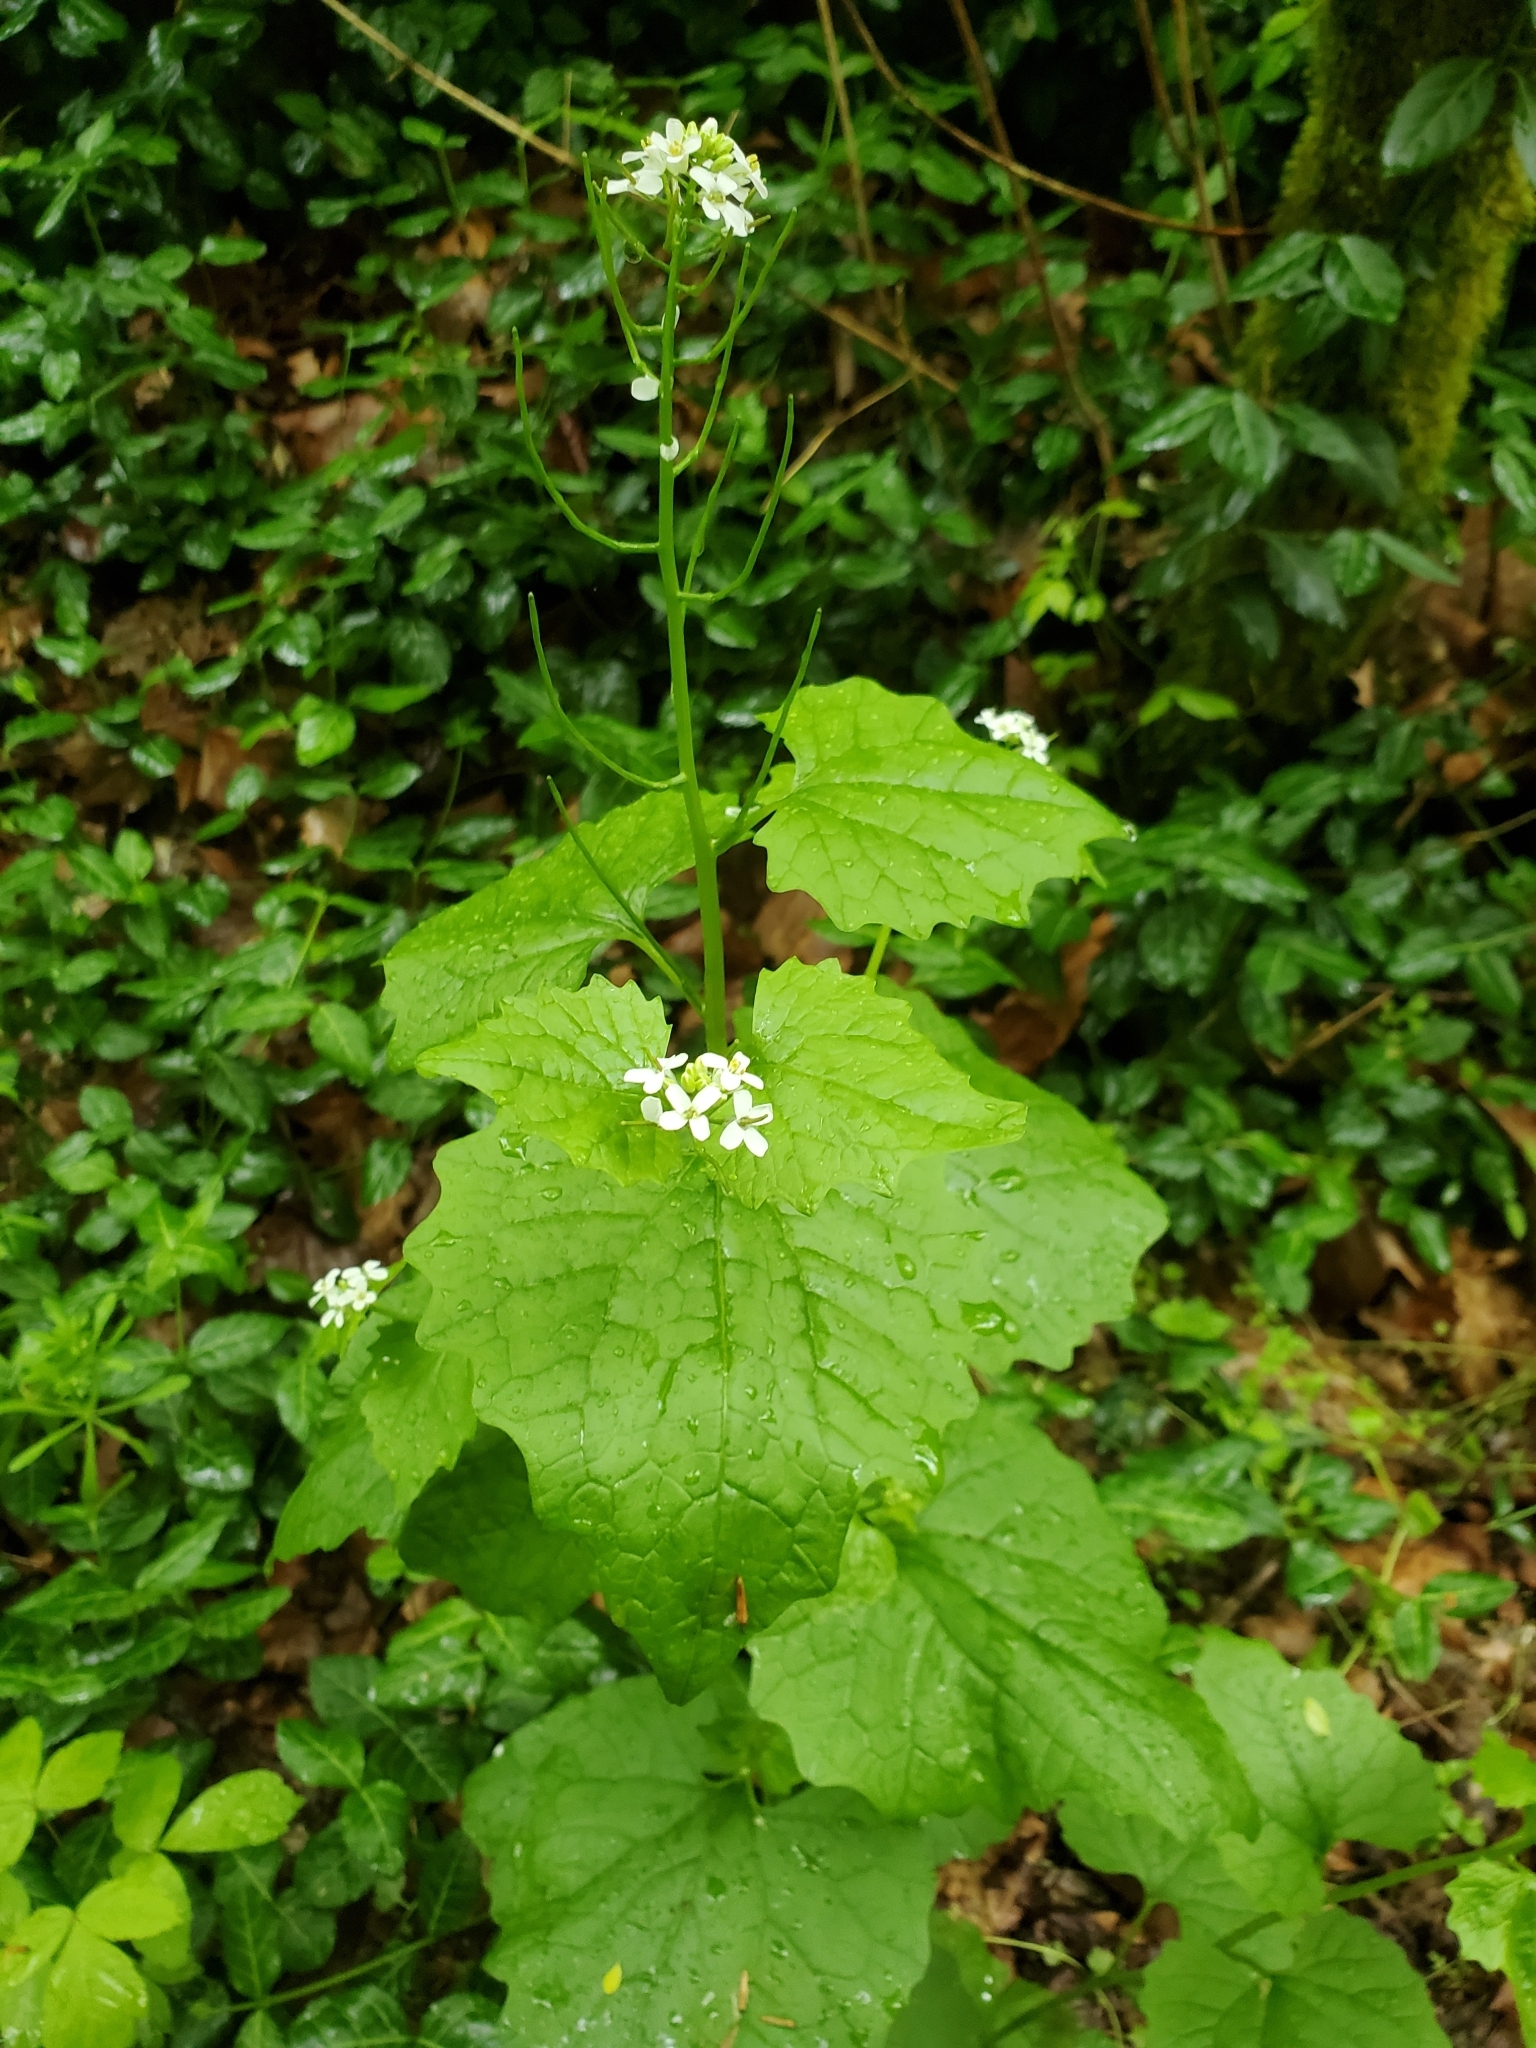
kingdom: Plantae
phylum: Tracheophyta
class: Magnoliopsida
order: Brassicales
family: Brassicaceae
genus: Alliaria
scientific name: Alliaria petiolata
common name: Garlic mustard
